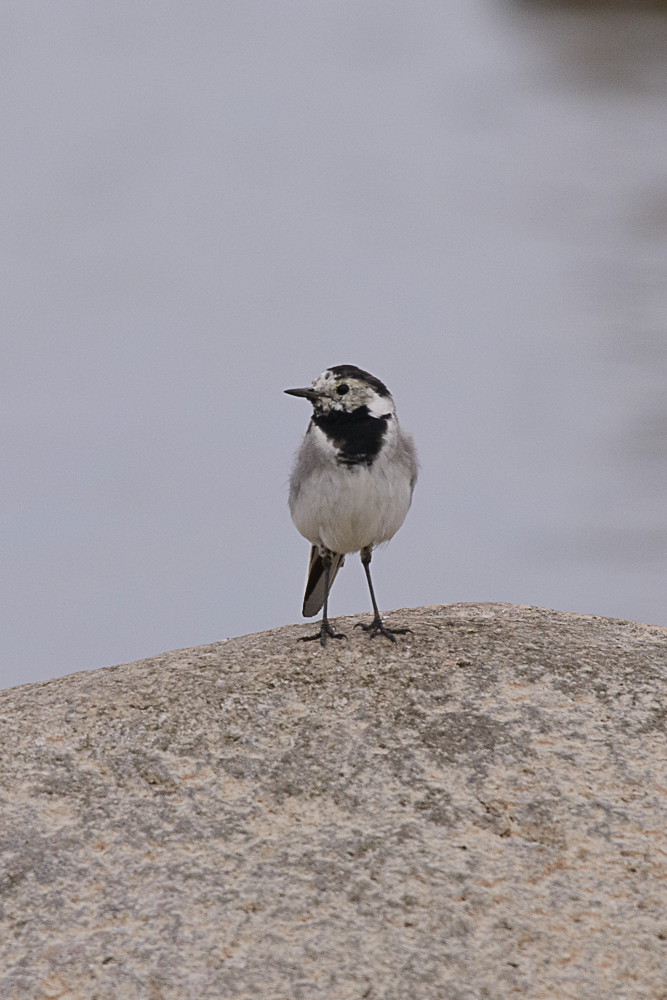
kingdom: Animalia
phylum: Chordata
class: Aves
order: Passeriformes
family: Motacillidae
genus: Motacilla
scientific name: Motacilla alba
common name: White wagtail
